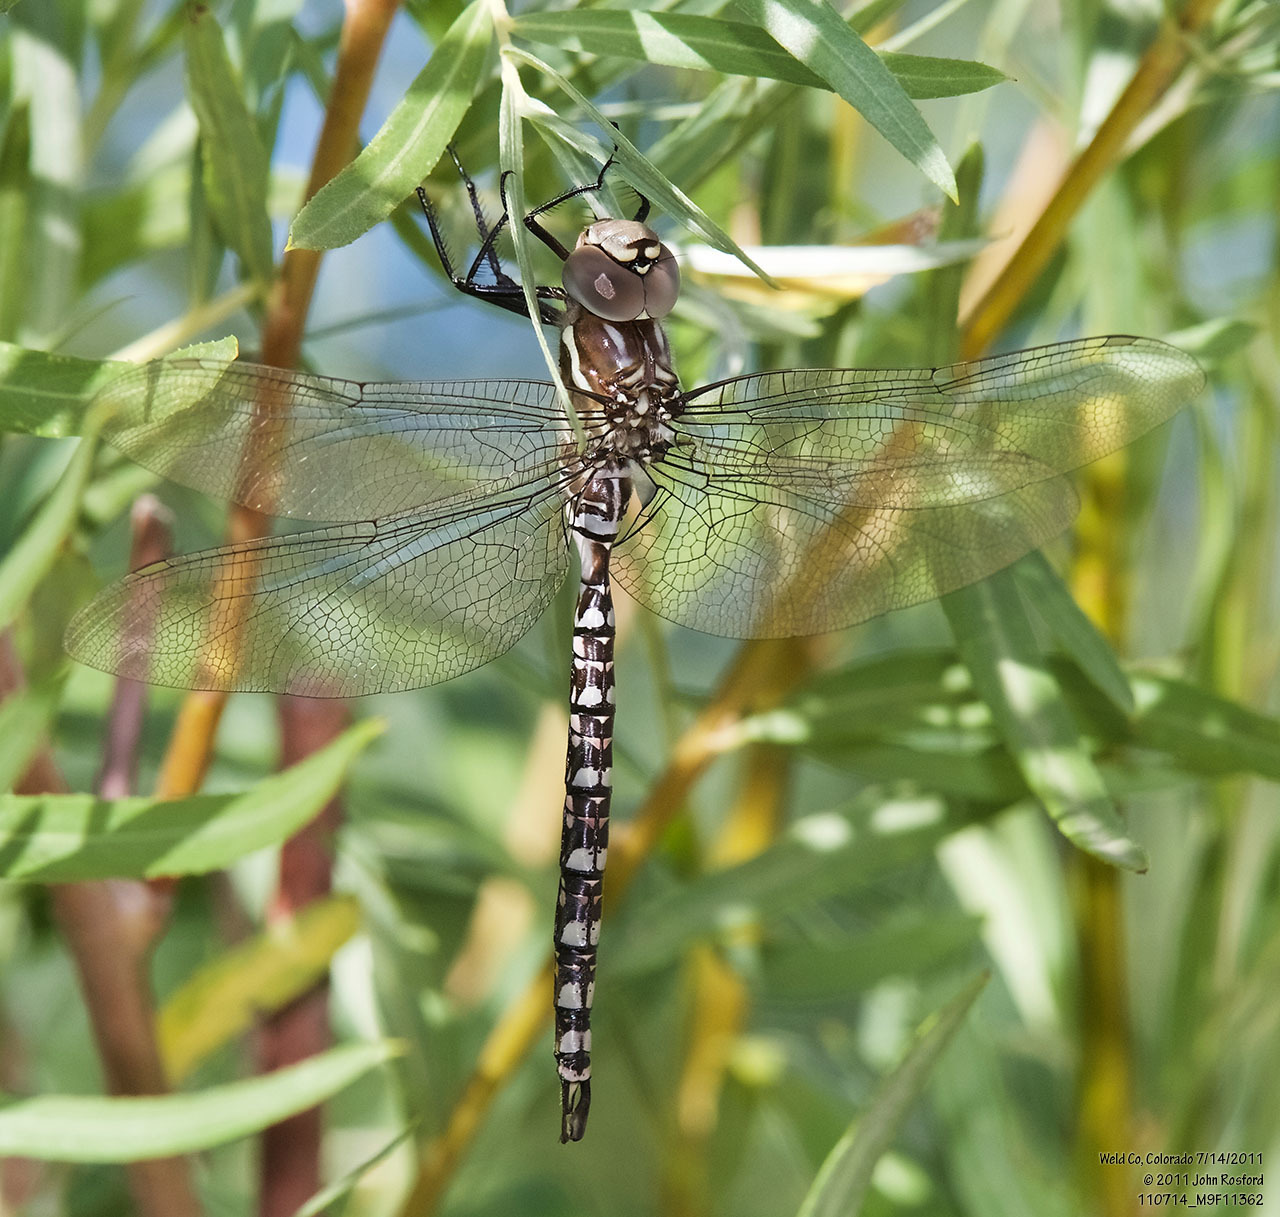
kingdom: Animalia
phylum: Arthropoda
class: Insecta
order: Odonata
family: Aeshnidae
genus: Aeshna
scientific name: Aeshna palmata
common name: Paddle-tailed darner
